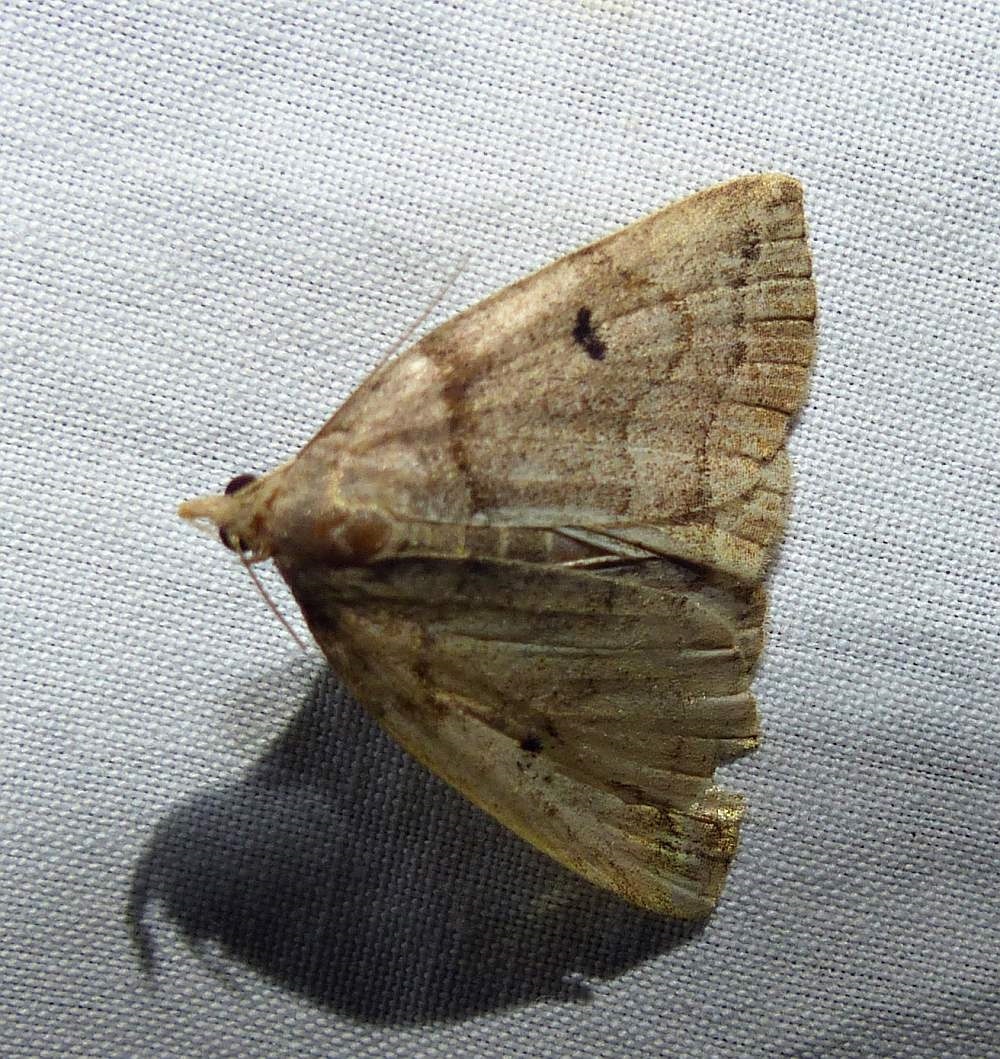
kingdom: Animalia
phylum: Arthropoda
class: Insecta
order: Lepidoptera
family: Erebidae
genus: Zanclognatha
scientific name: Zanclognatha laevigata
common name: Variable fan-foot
